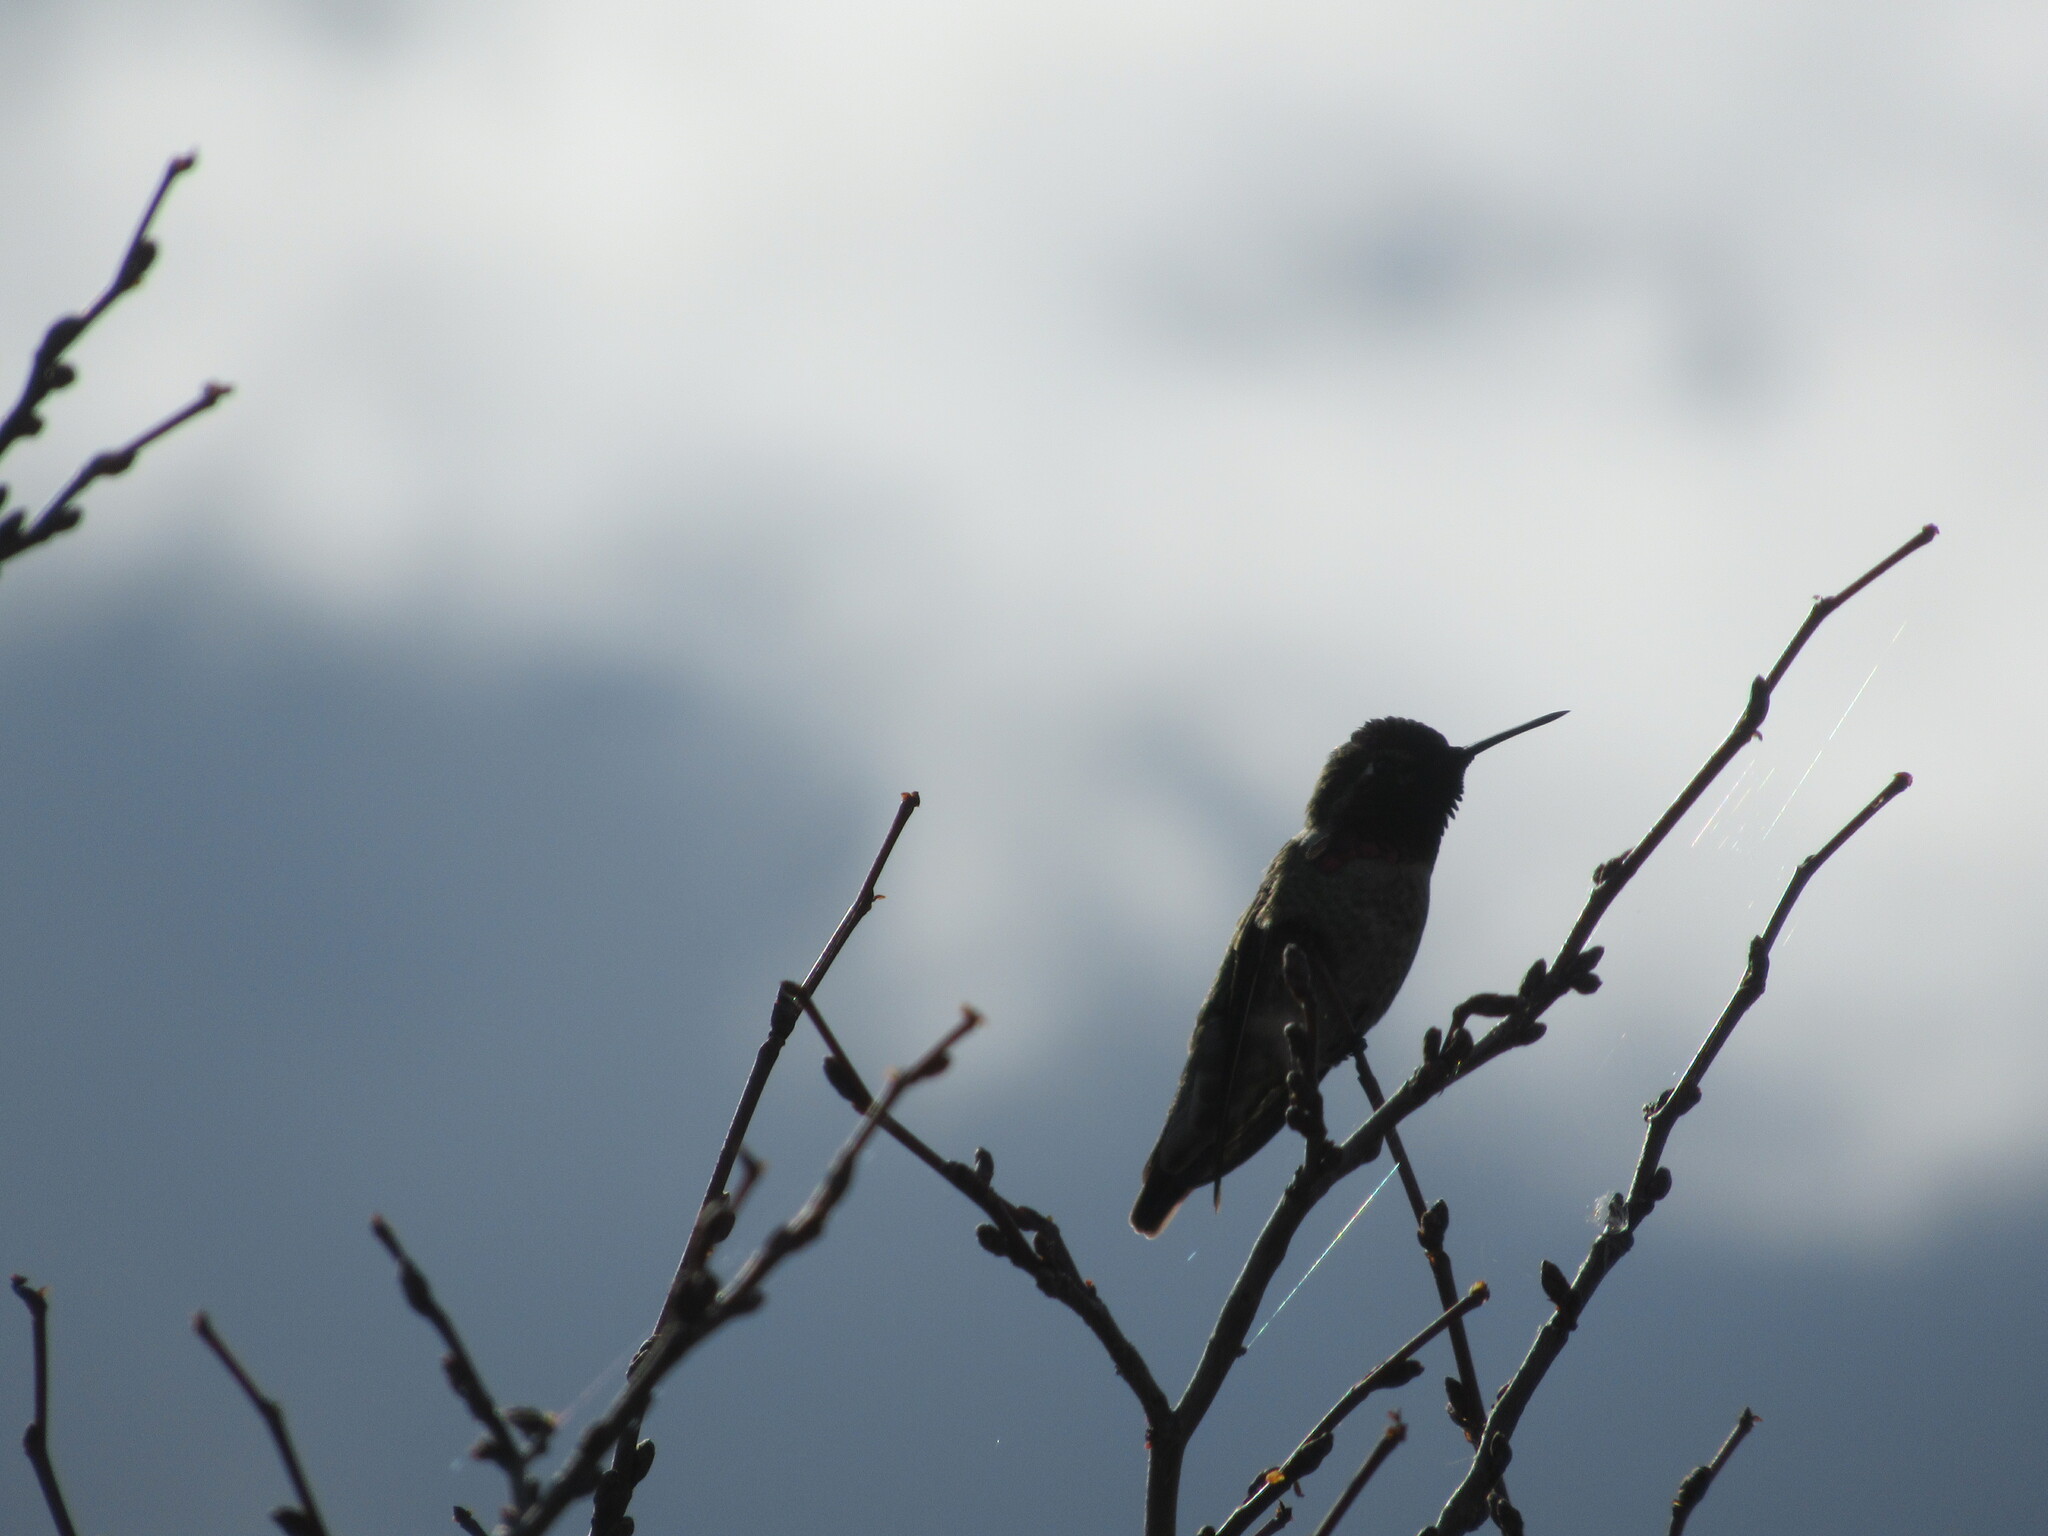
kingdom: Animalia
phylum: Chordata
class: Aves
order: Apodiformes
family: Trochilidae
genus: Calypte
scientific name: Calypte anna
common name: Anna's hummingbird
